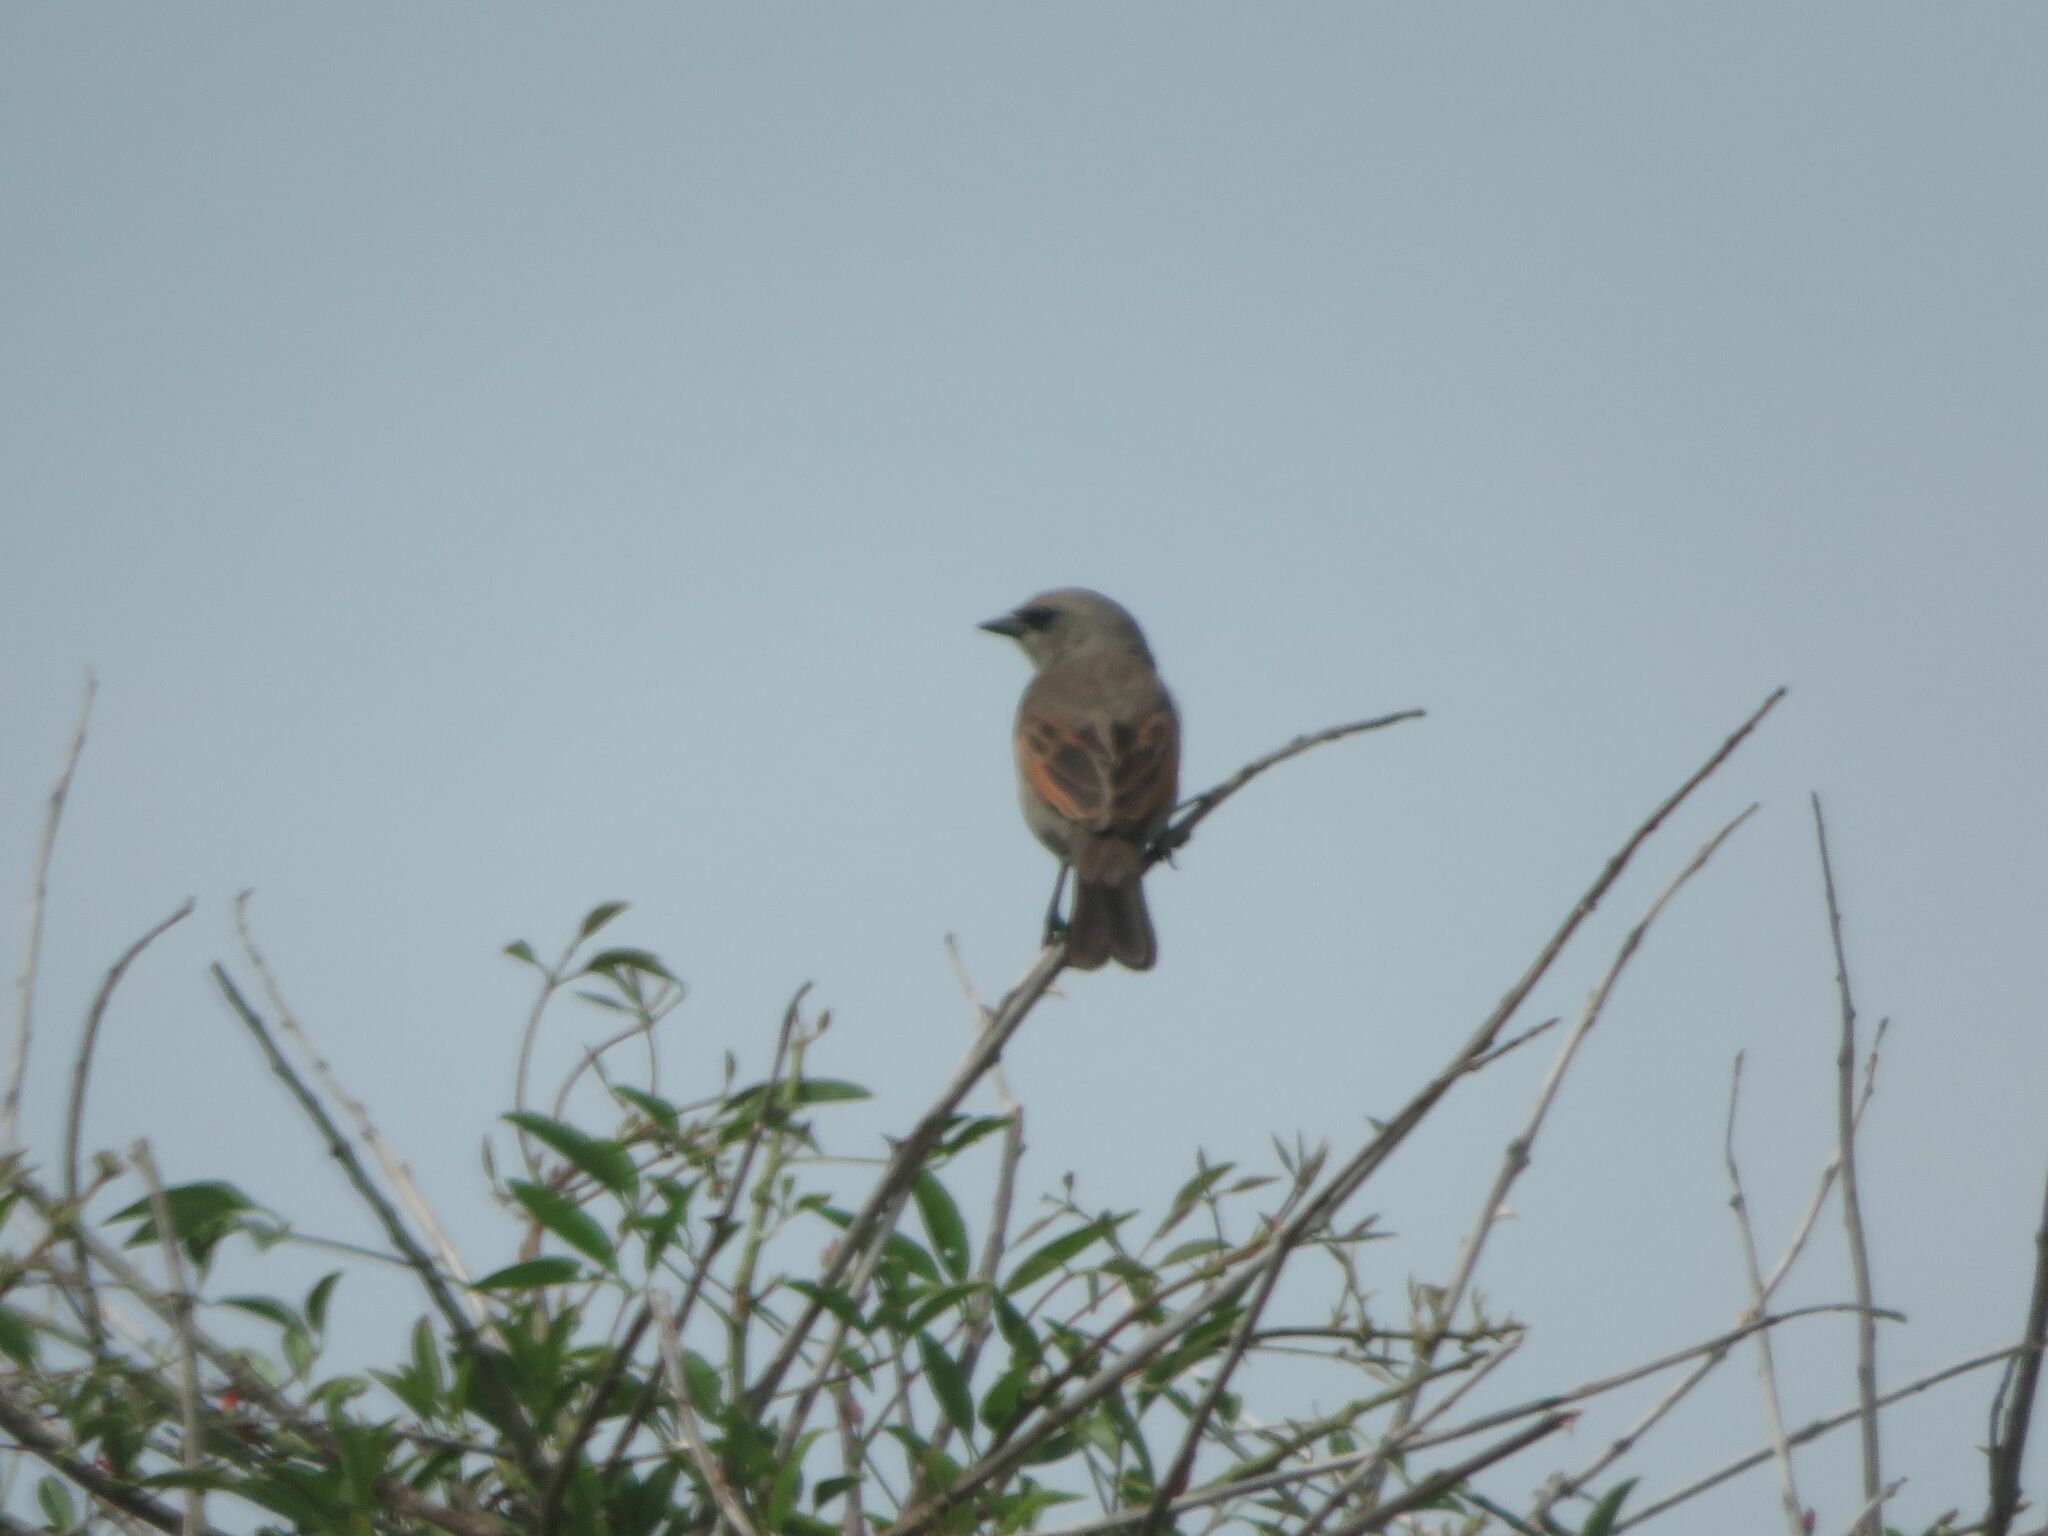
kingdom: Animalia
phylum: Chordata
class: Aves
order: Passeriformes
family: Icteridae
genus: Agelaioides
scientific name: Agelaioides badius
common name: Baywing
